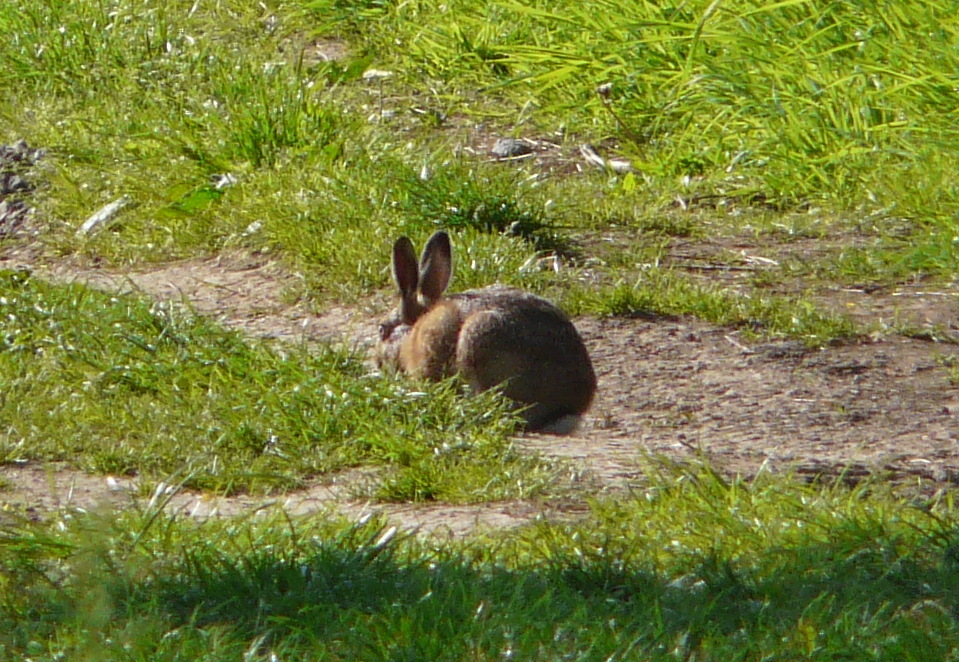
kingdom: Animalia
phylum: Chordata
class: Mammalia
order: Lagomorpha
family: Leporidae
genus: Oryctolagus
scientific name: Oryctolagus cuniculus
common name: European rabbit
